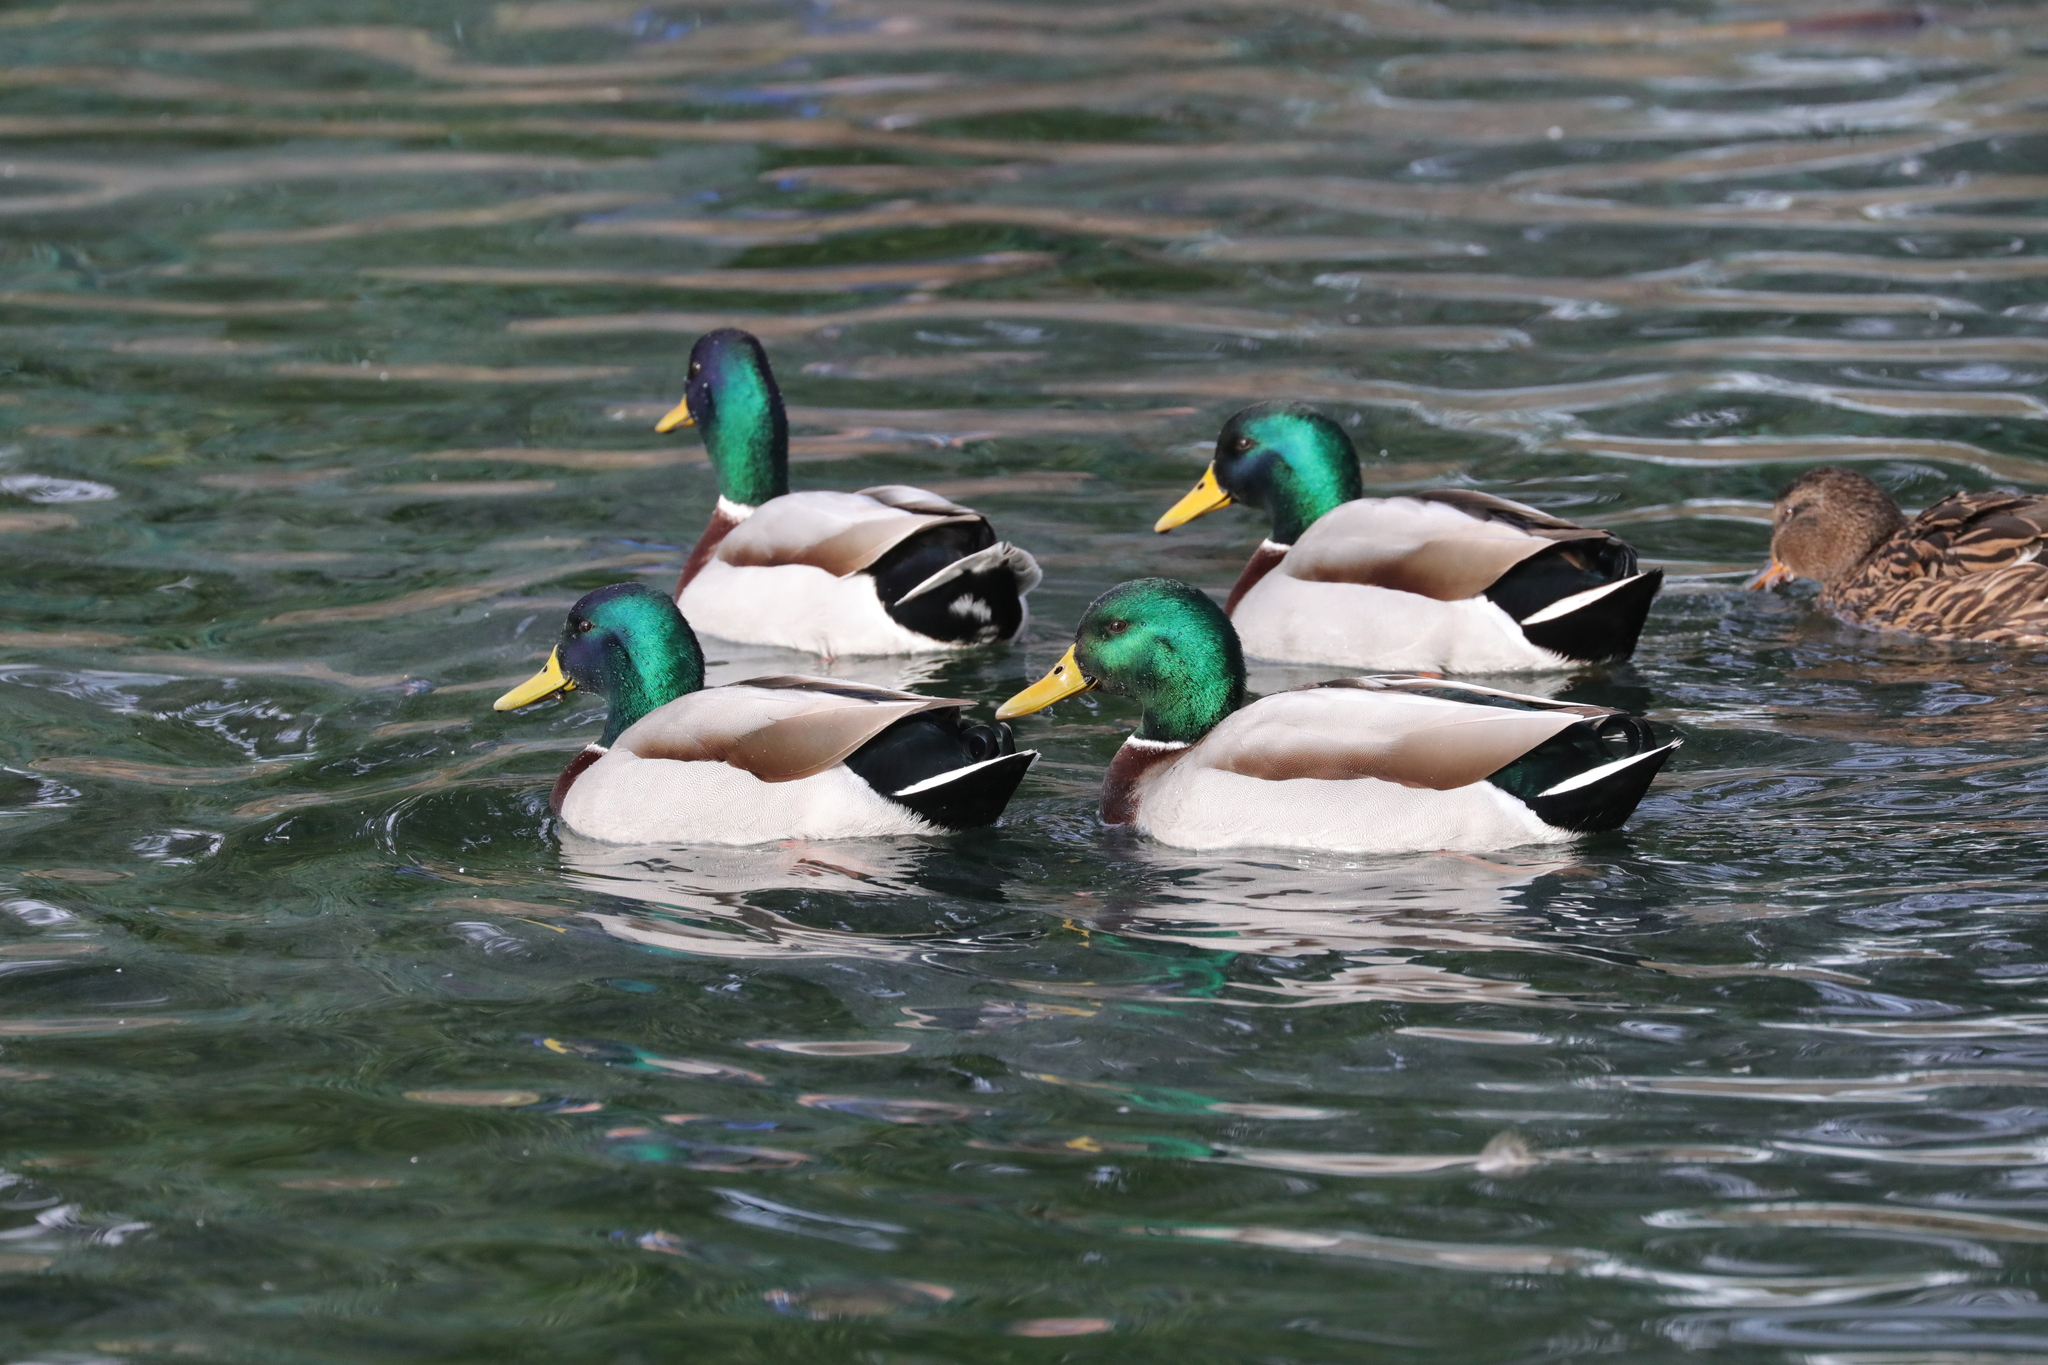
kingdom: Animalia
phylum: Chordata
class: Aves
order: Anseriformes
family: Anatidae
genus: Anas
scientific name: Anas platyrhynchos
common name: Mallard
